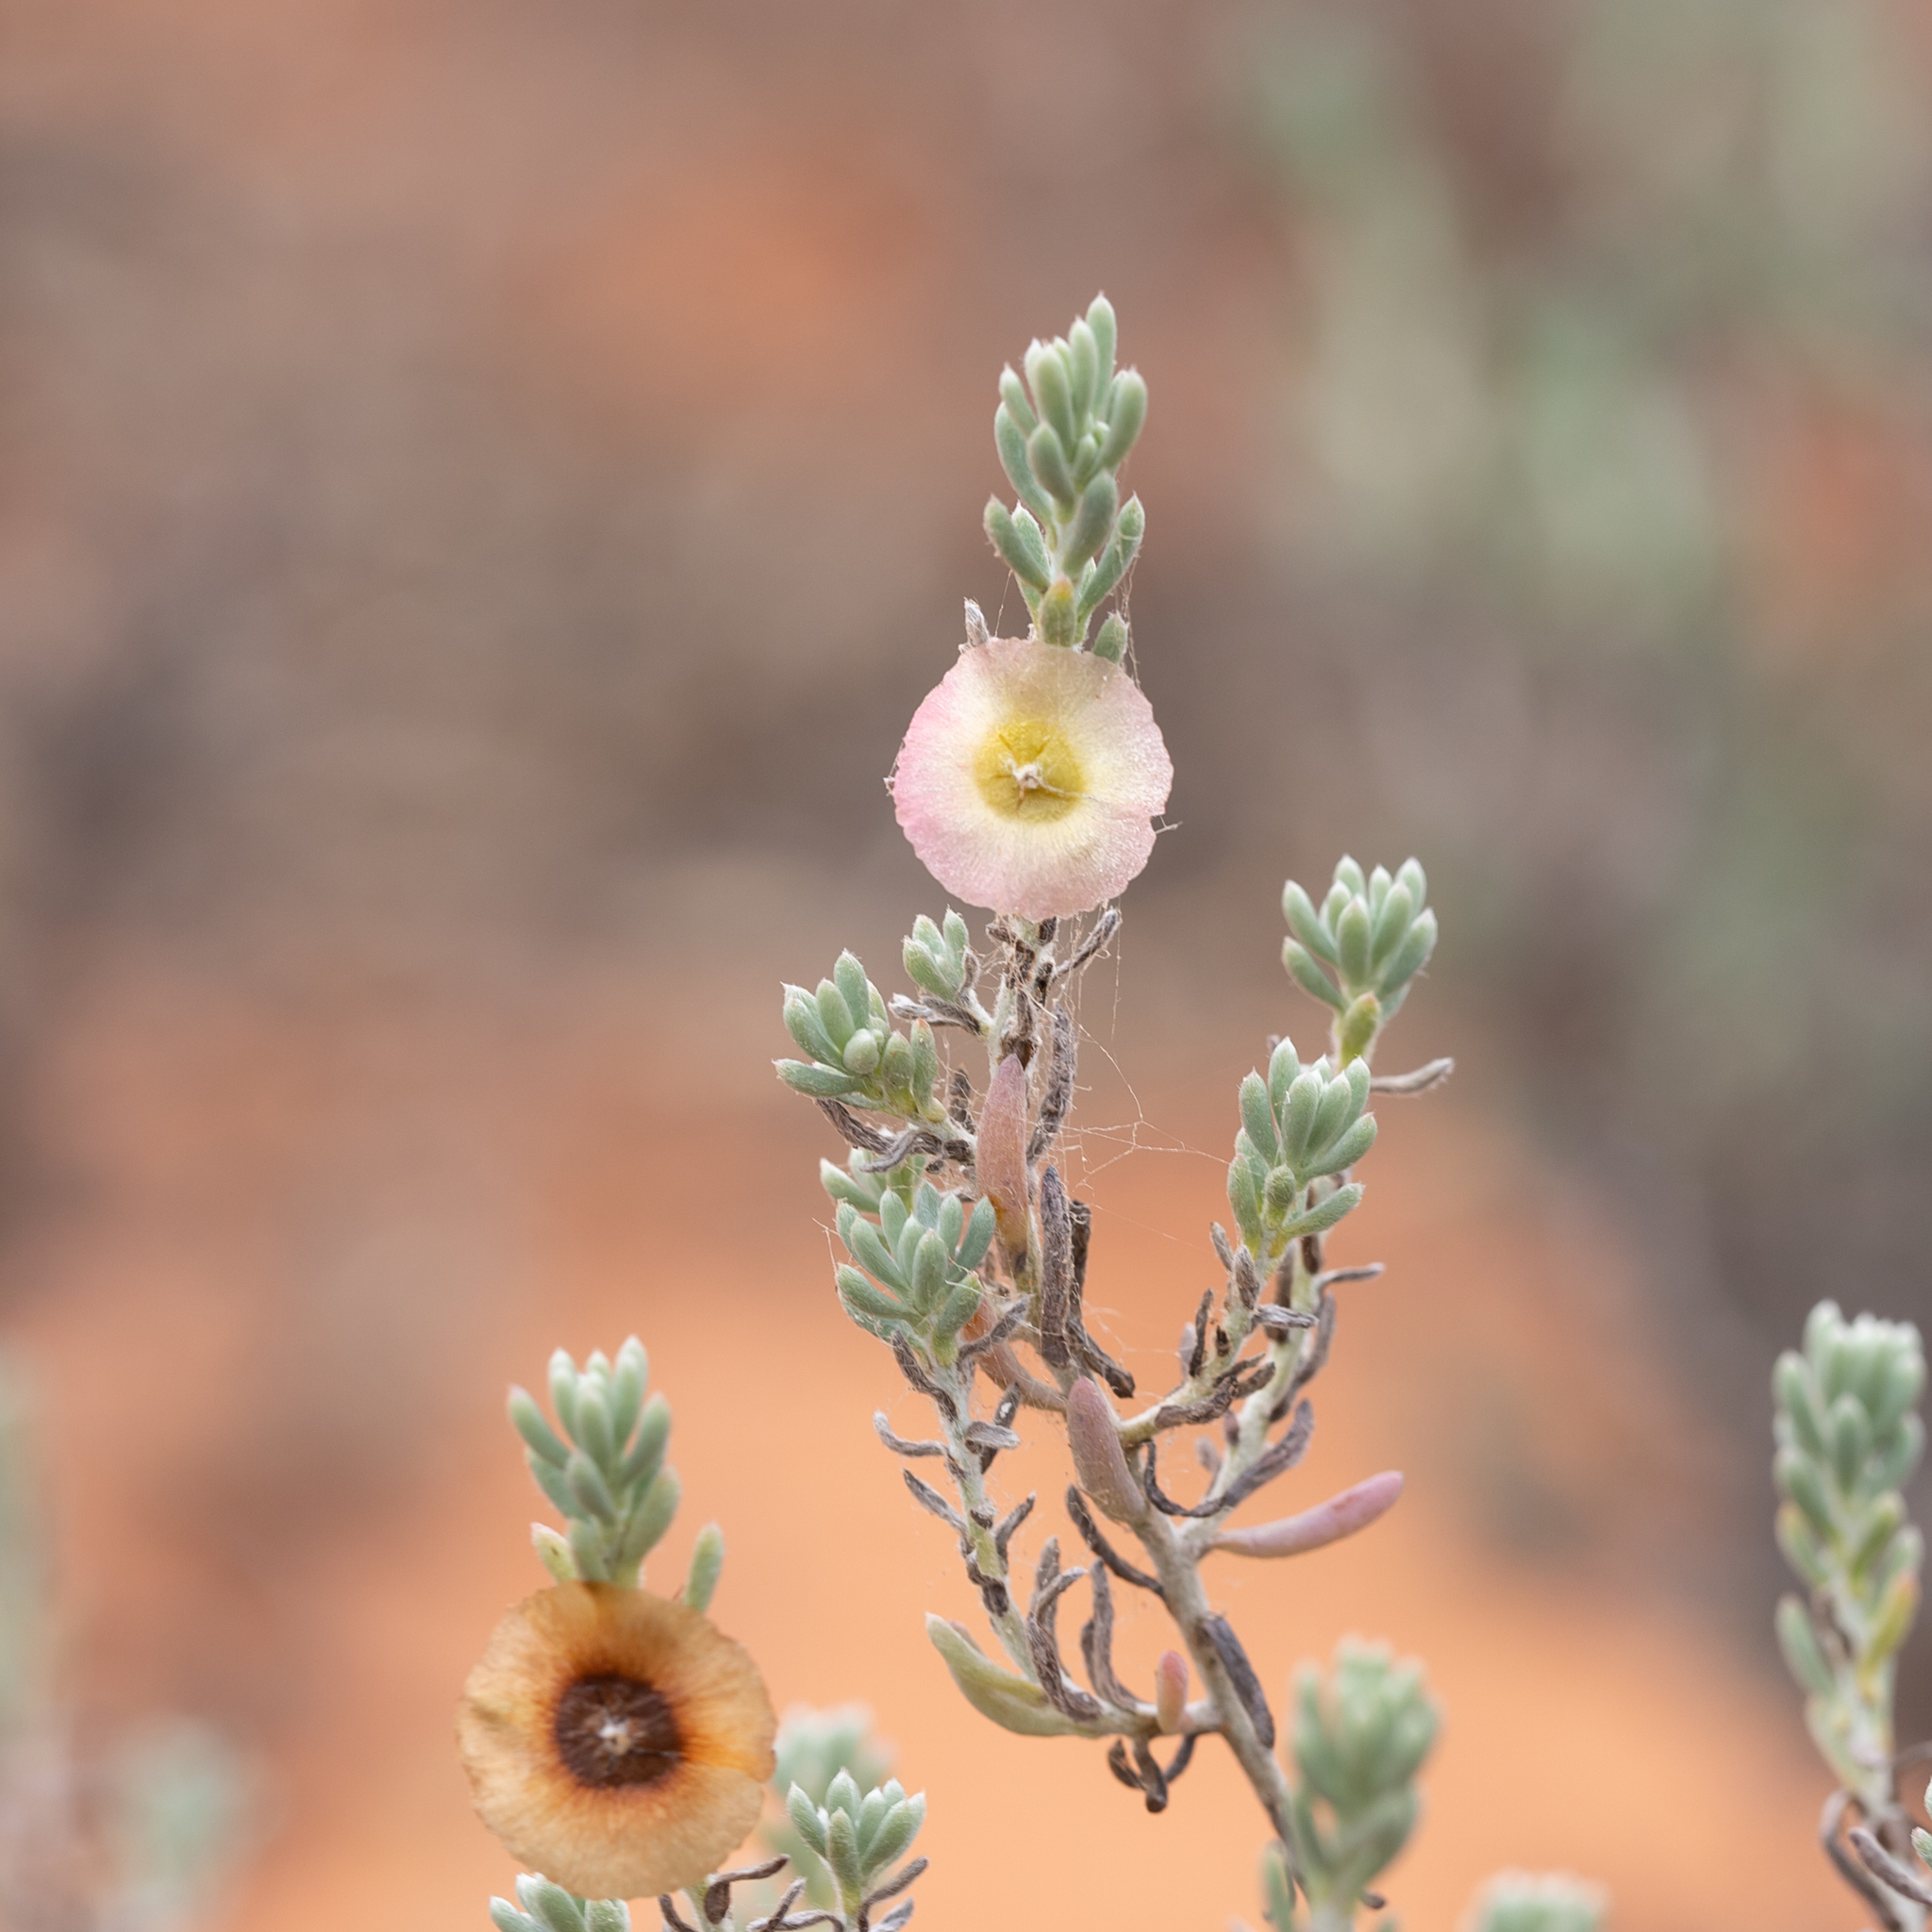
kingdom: Plantae
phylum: Tracheophyta
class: Magnoliopsida
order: Caryophyllales
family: Amaranthaceae
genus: Maireana
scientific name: Maireana georgei
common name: Satiny bluebush
